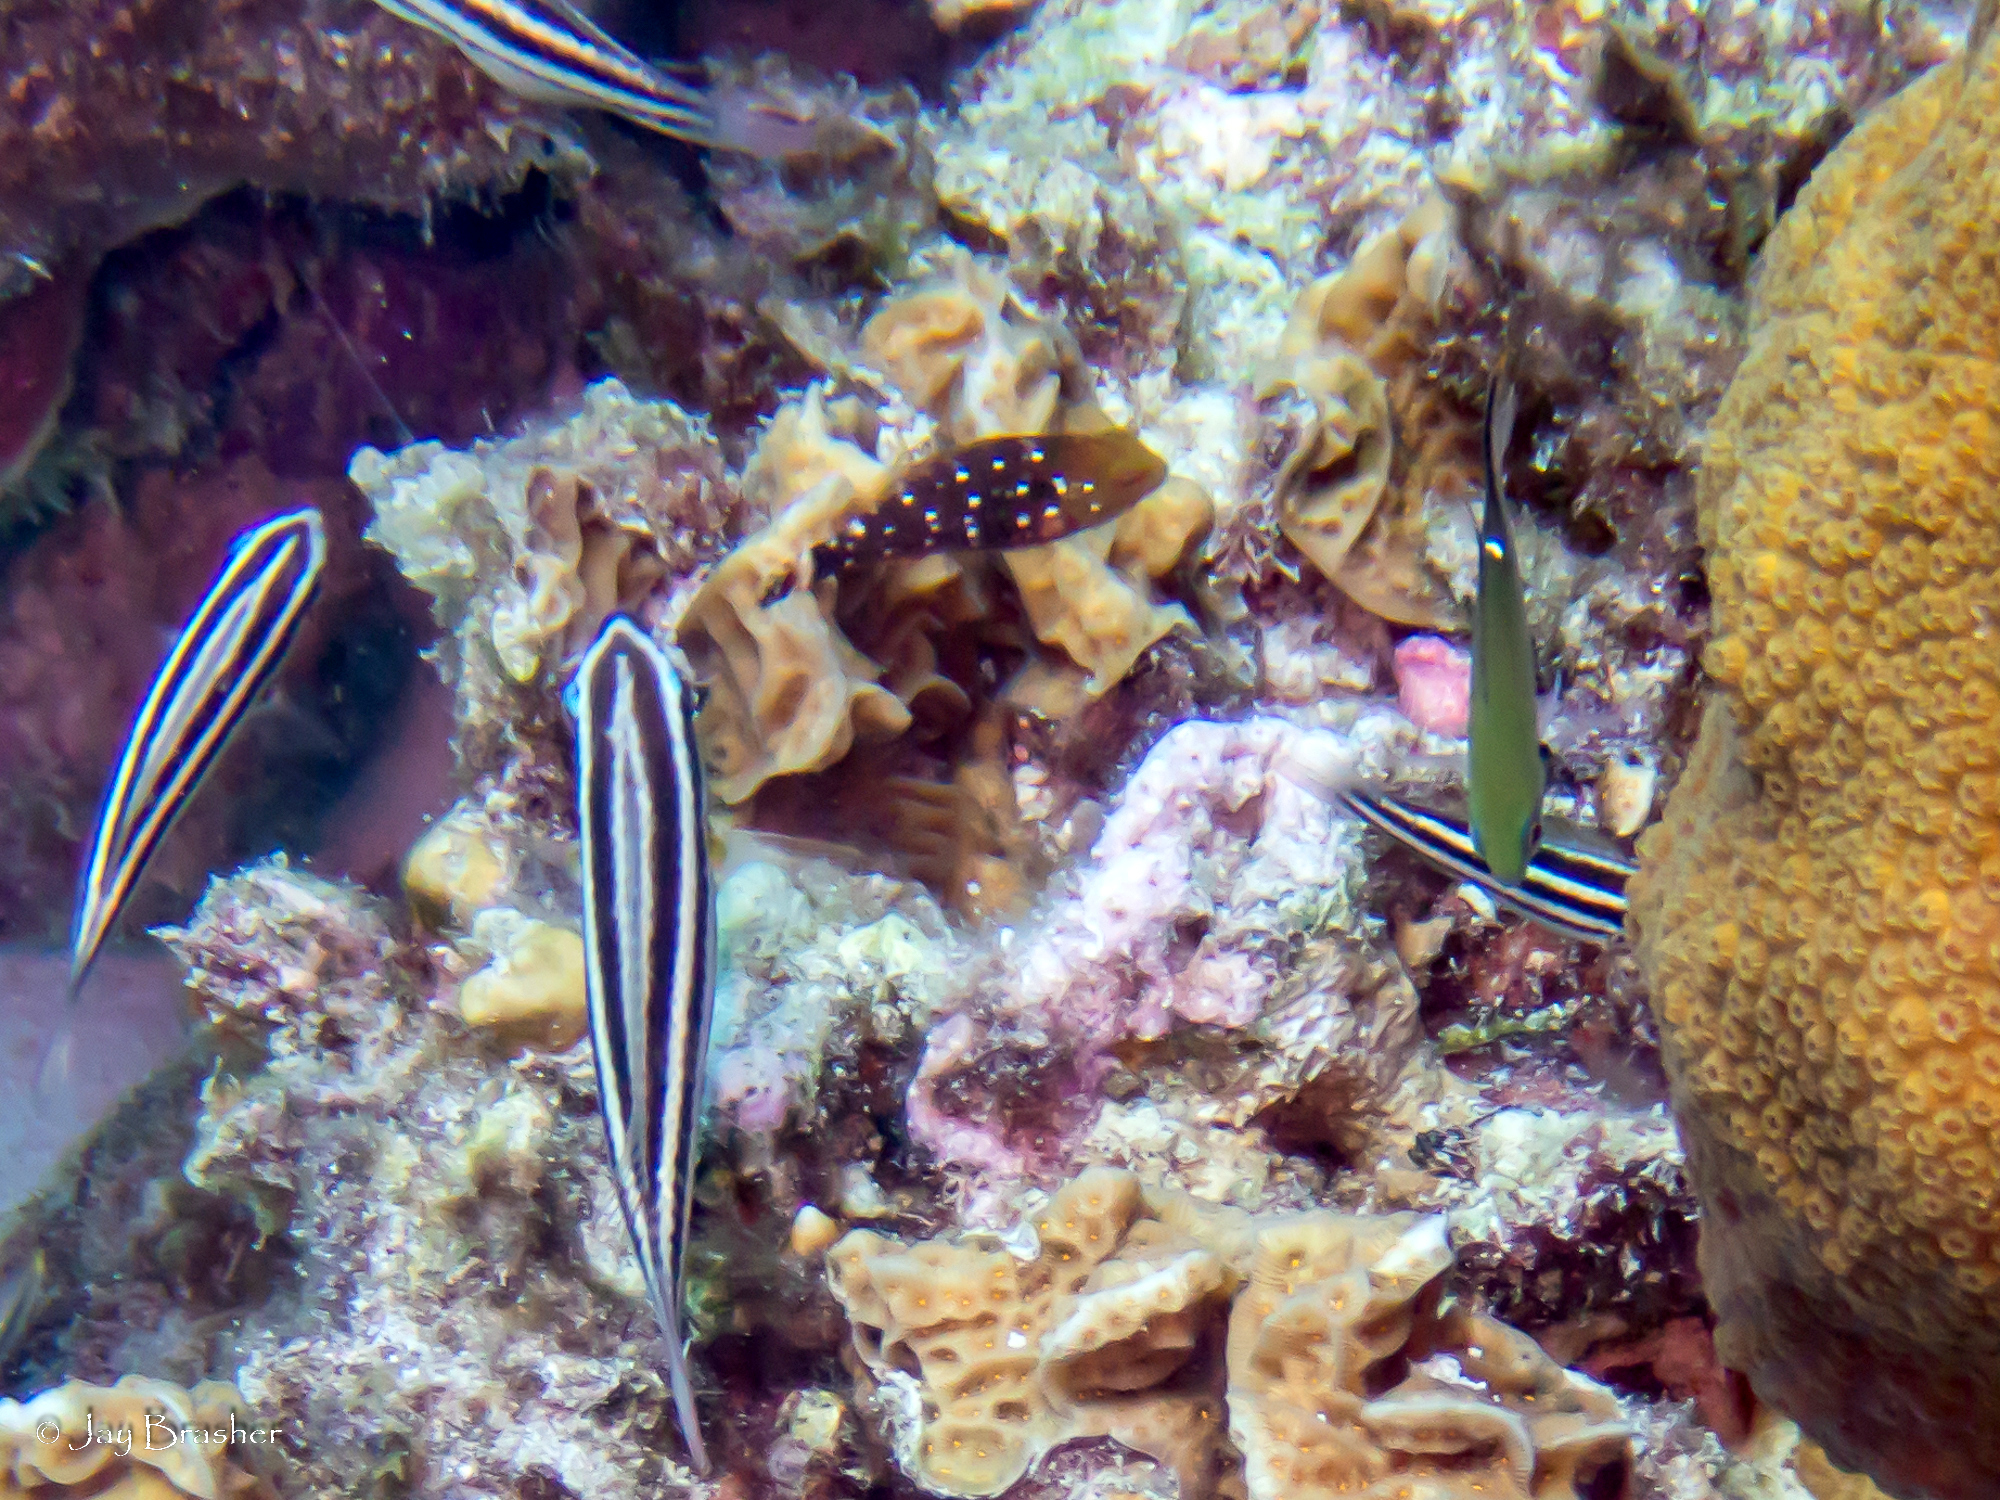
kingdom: Animalia
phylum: Chordata
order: Perciformes
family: Scaridae
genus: Sparisoma
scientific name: Sparisoma viride
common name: Stoplight parrotfish
